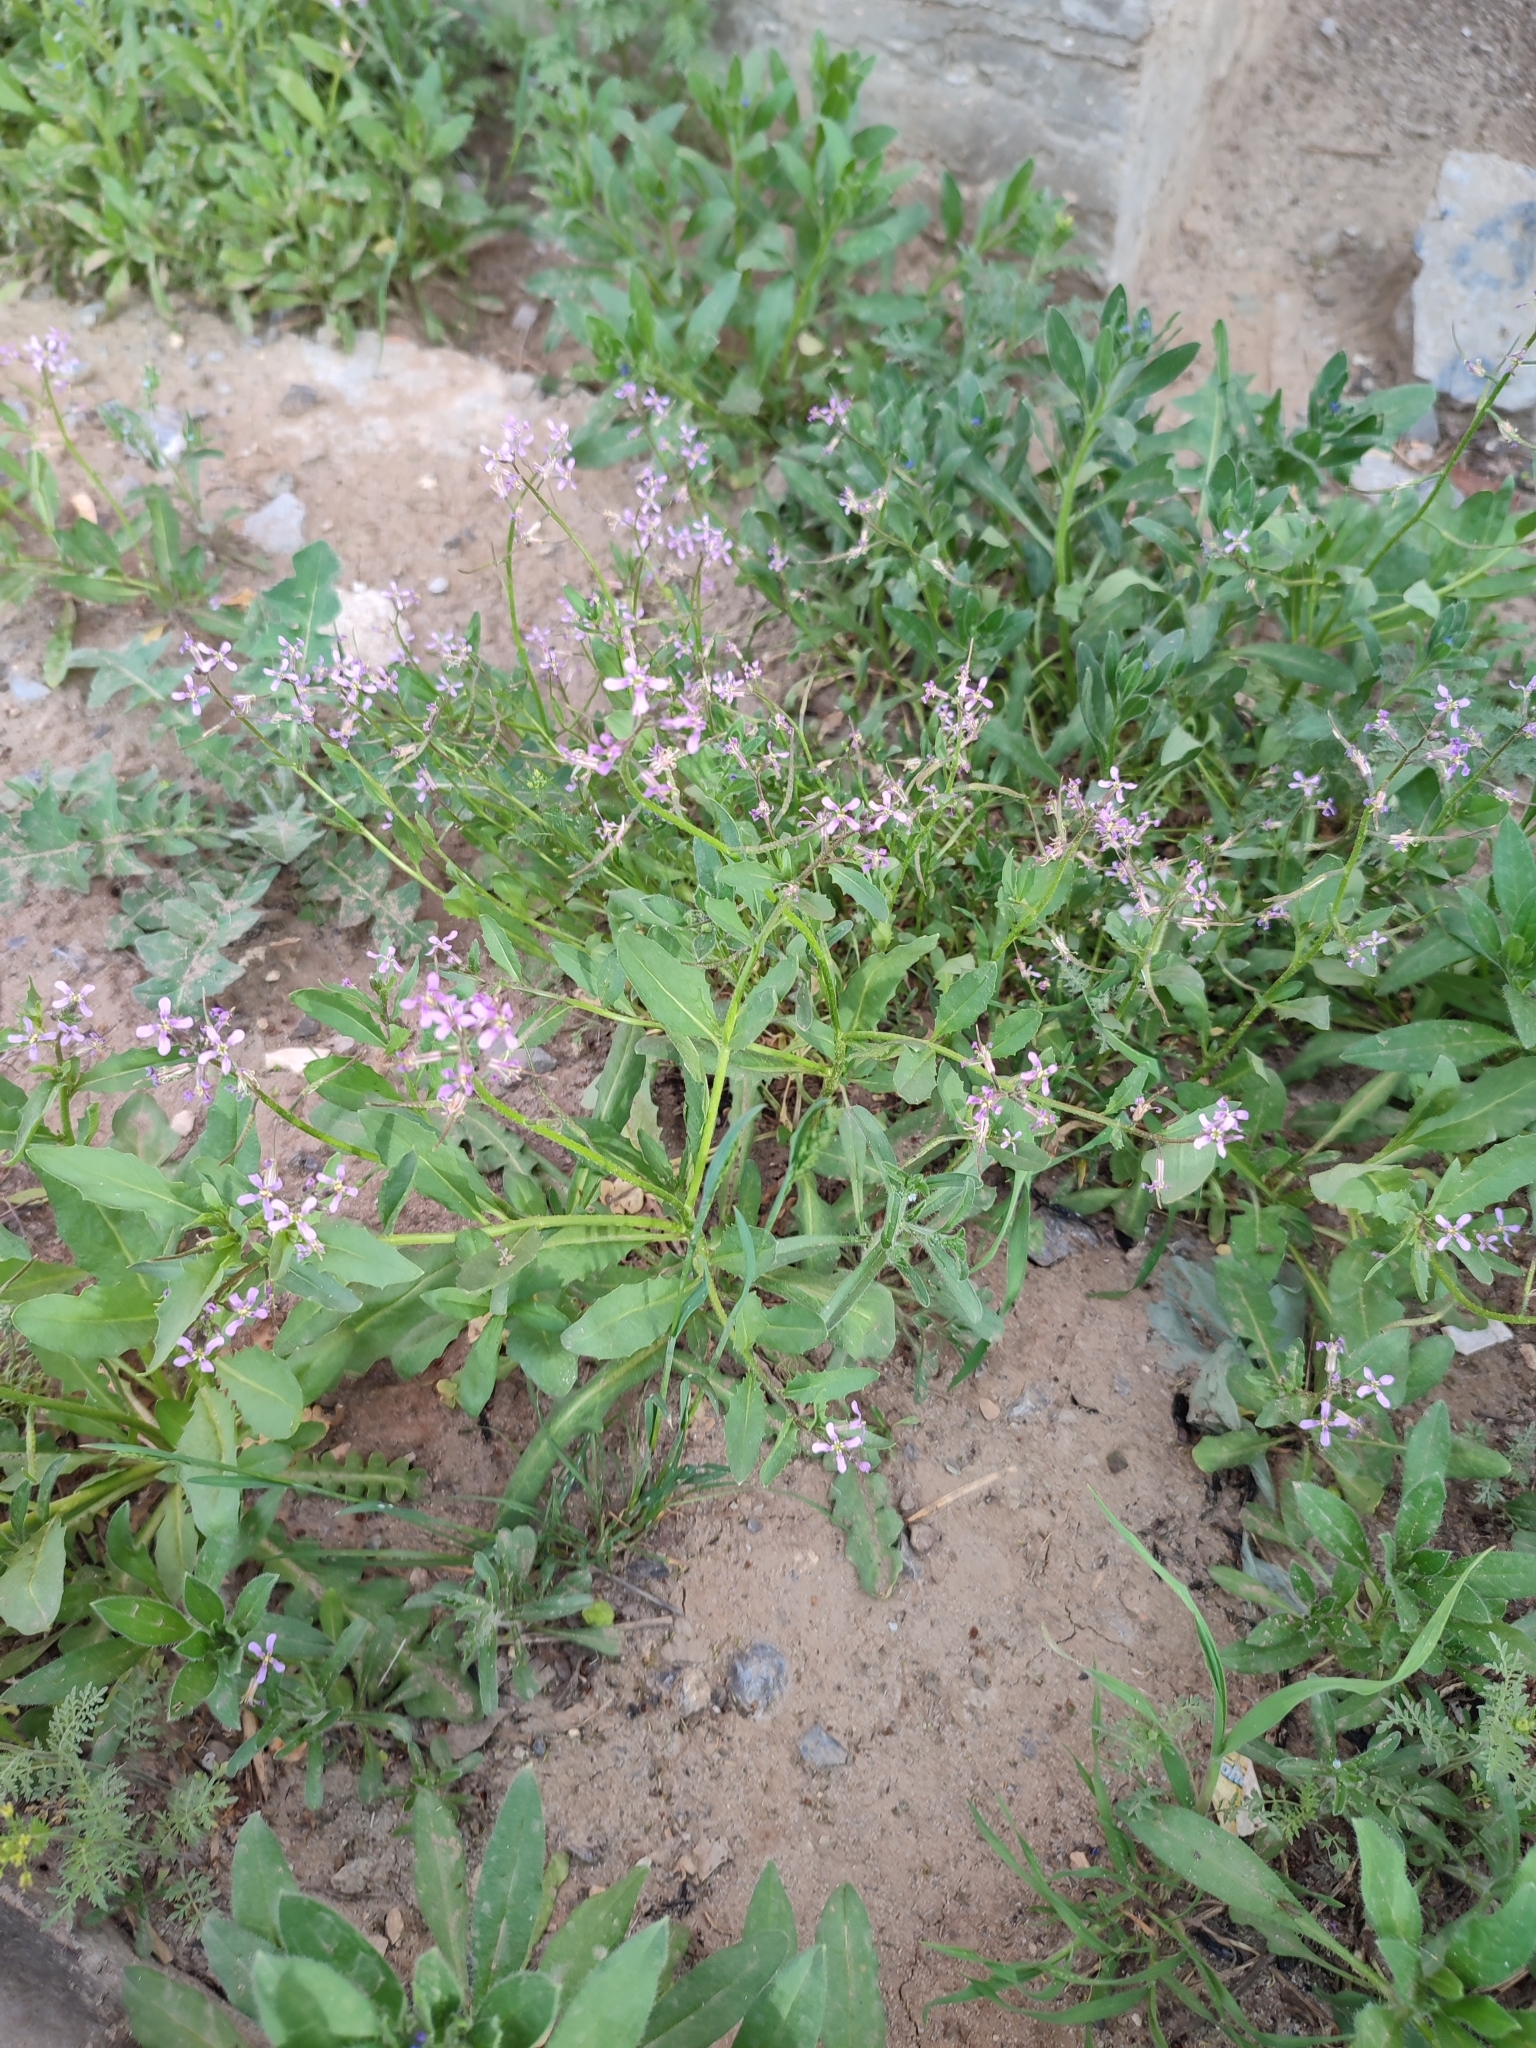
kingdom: Plantae
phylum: Tracheophyta
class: Magnoliopsida
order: Brassicales
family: Brassicaceae
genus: Chorispora
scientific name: Chorispora tenella
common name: Crossflower
